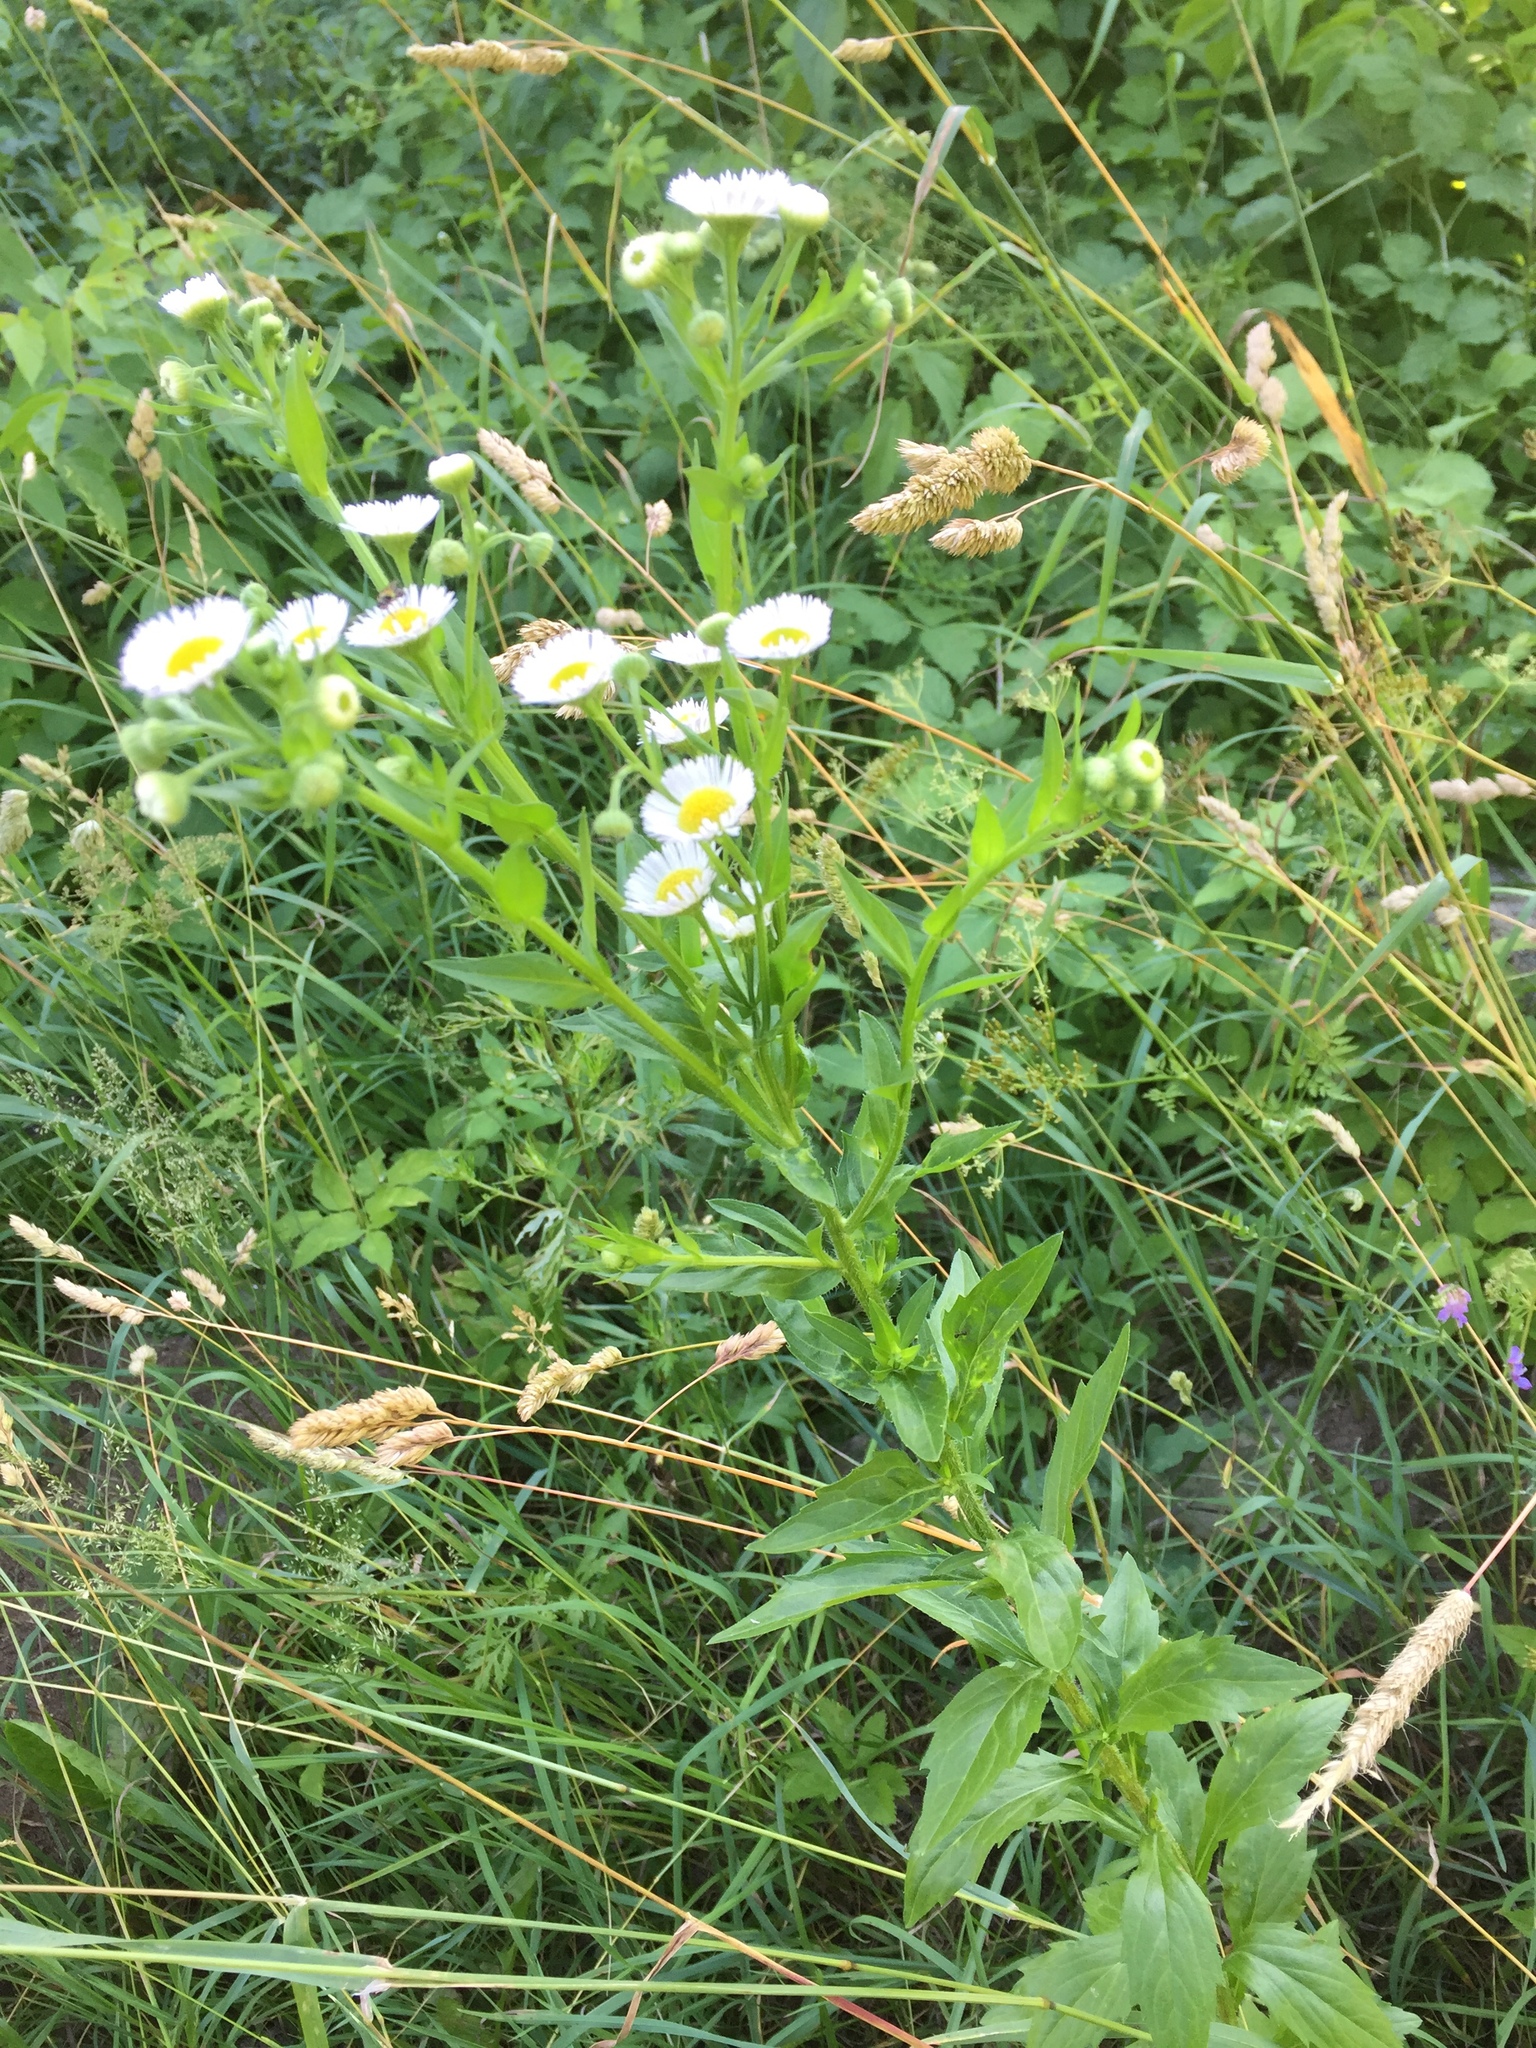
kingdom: Plantae
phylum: Tracheophyta
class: Magnoliopsida
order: Asterales
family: Asteraceae
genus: Erigeron
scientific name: Erigeron annuus
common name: Tall fleabane
